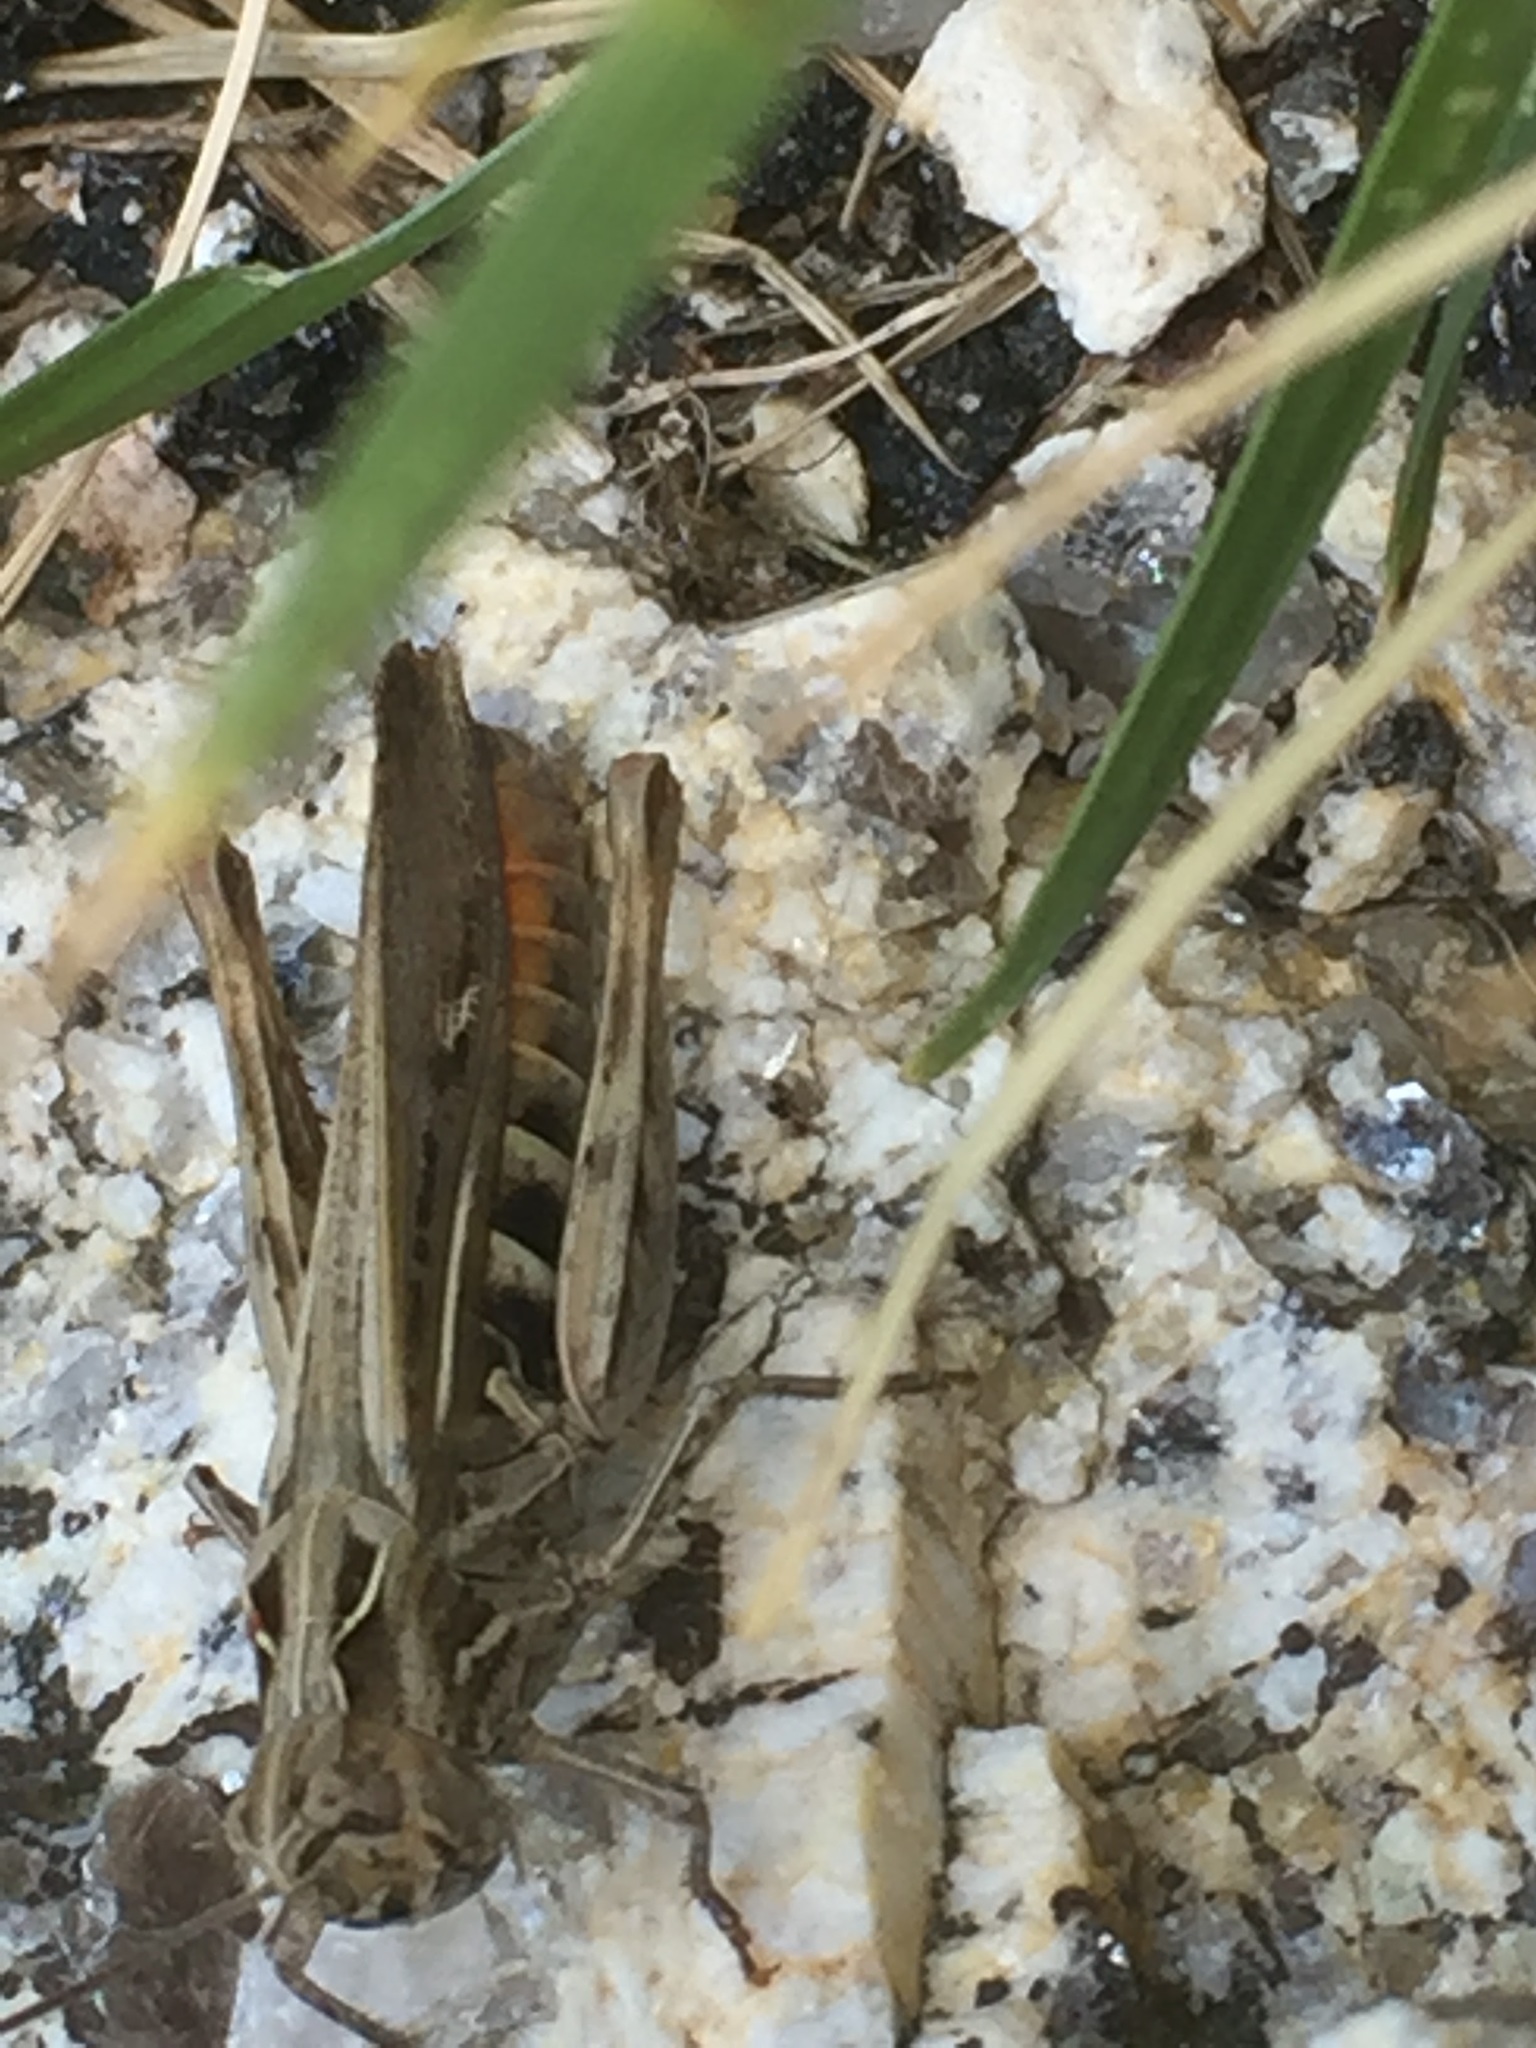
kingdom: Animalia
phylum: Arthropoda
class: Insecta
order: Orthoptera
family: Acrididae
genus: Chorthippus
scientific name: Chorthippus yersini
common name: Yersin's grasshopper
